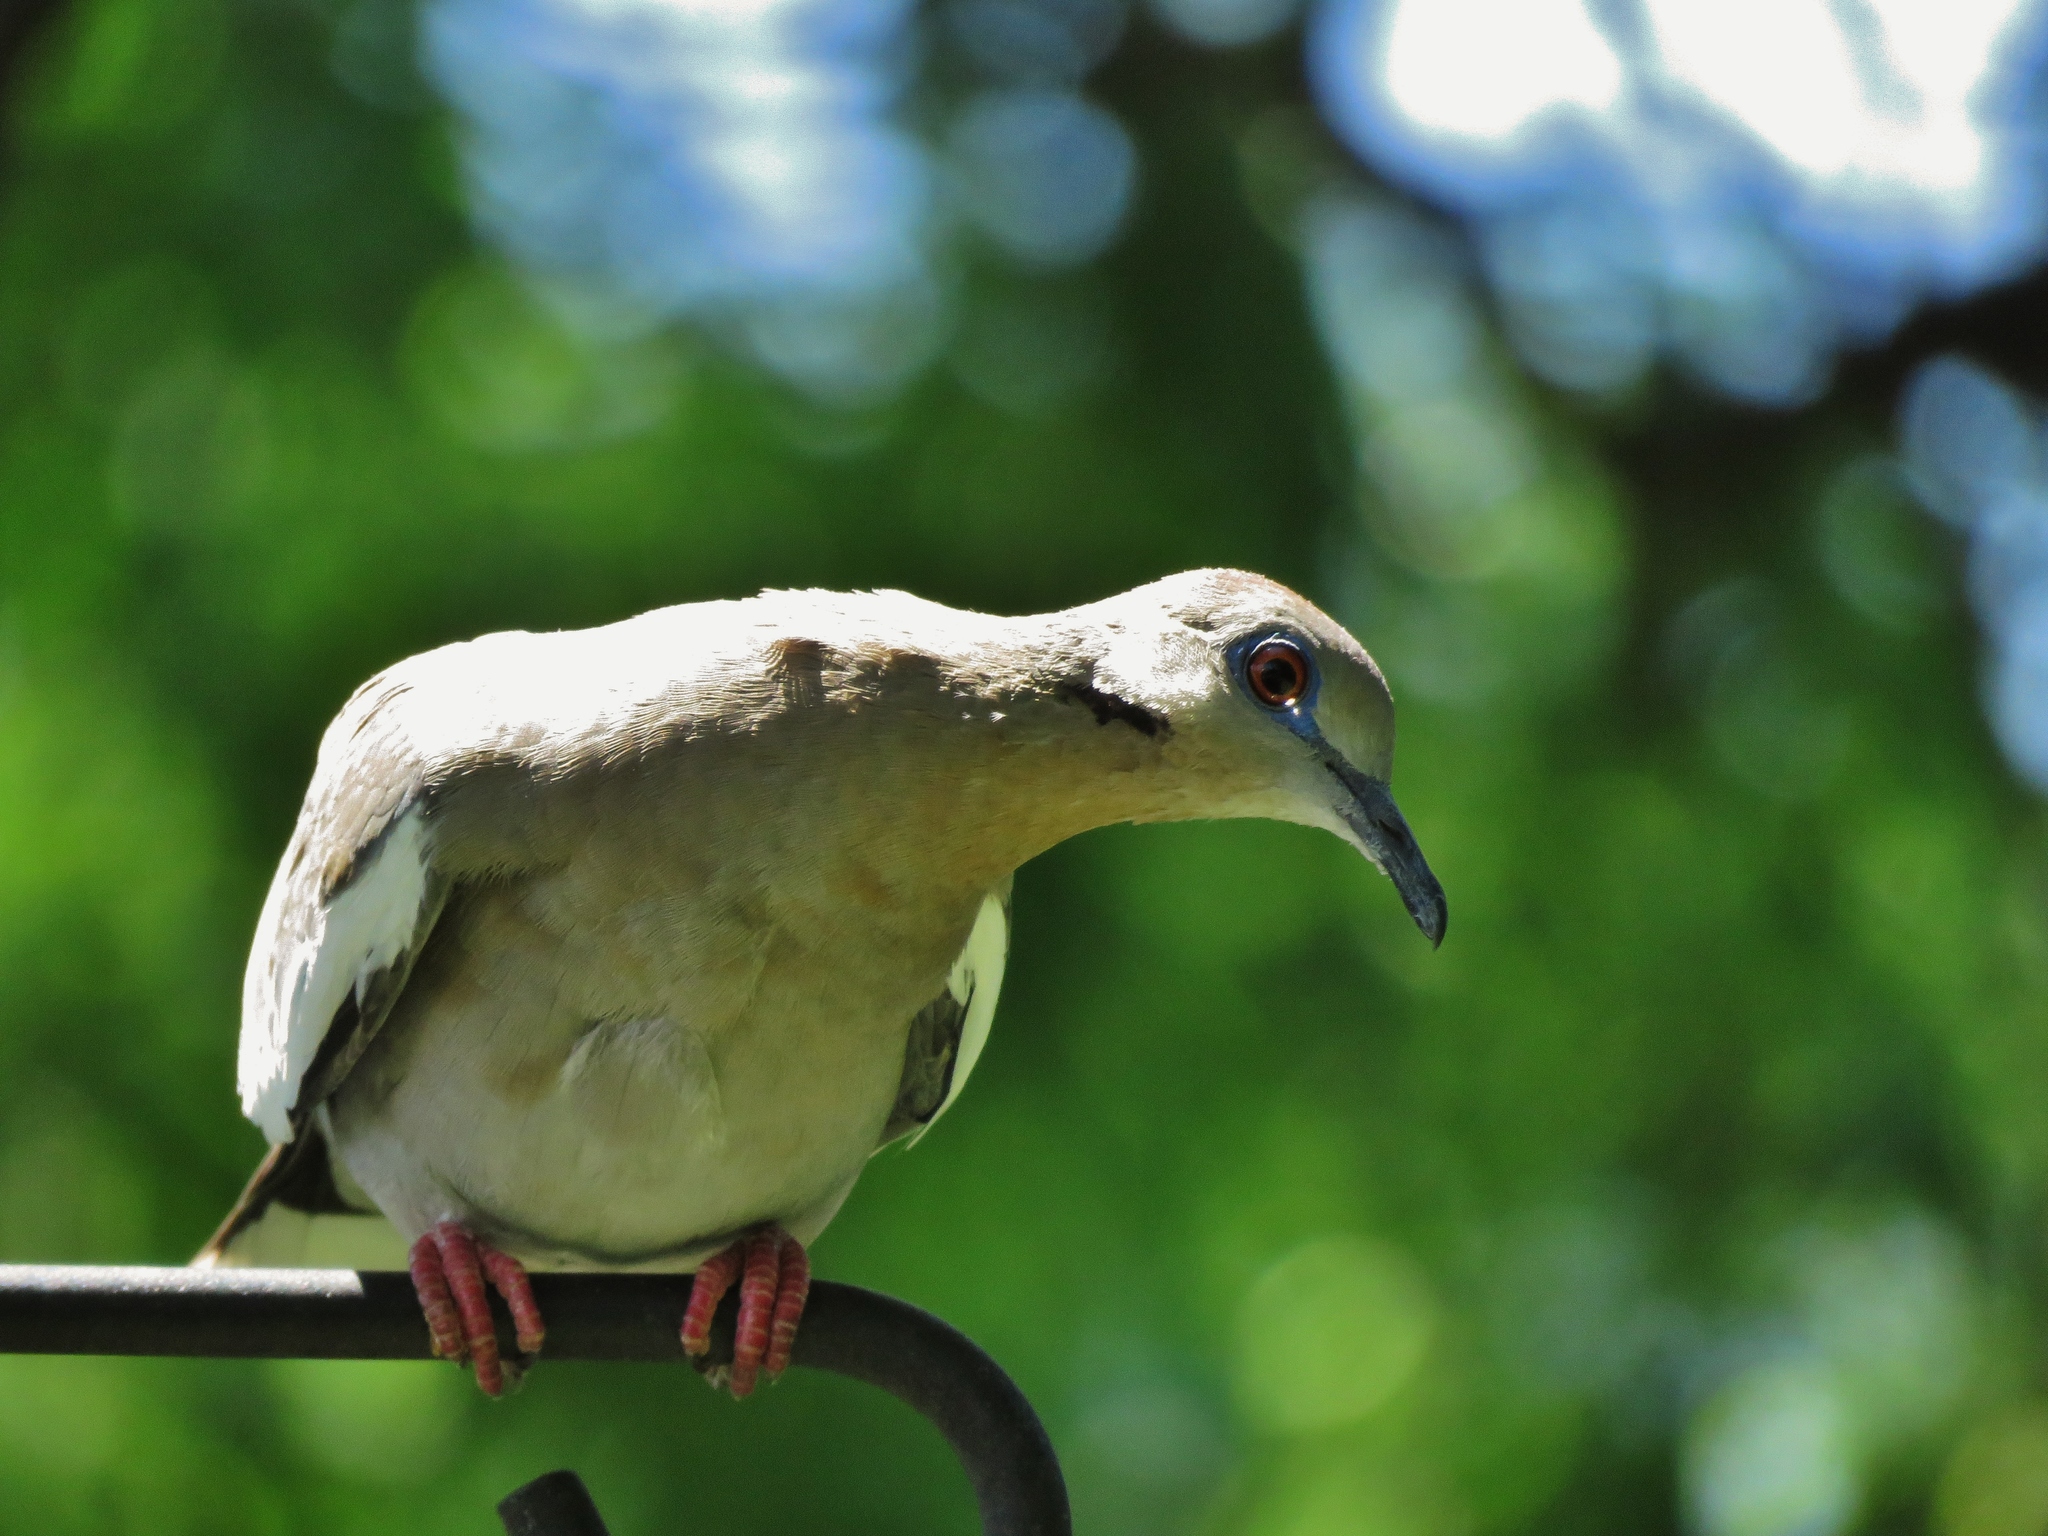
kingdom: Animalia
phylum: Chordata
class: Aves
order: Columbiformes
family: Columbidae
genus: Zenaida
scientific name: Zenaida asiatica
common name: White-winged dove
